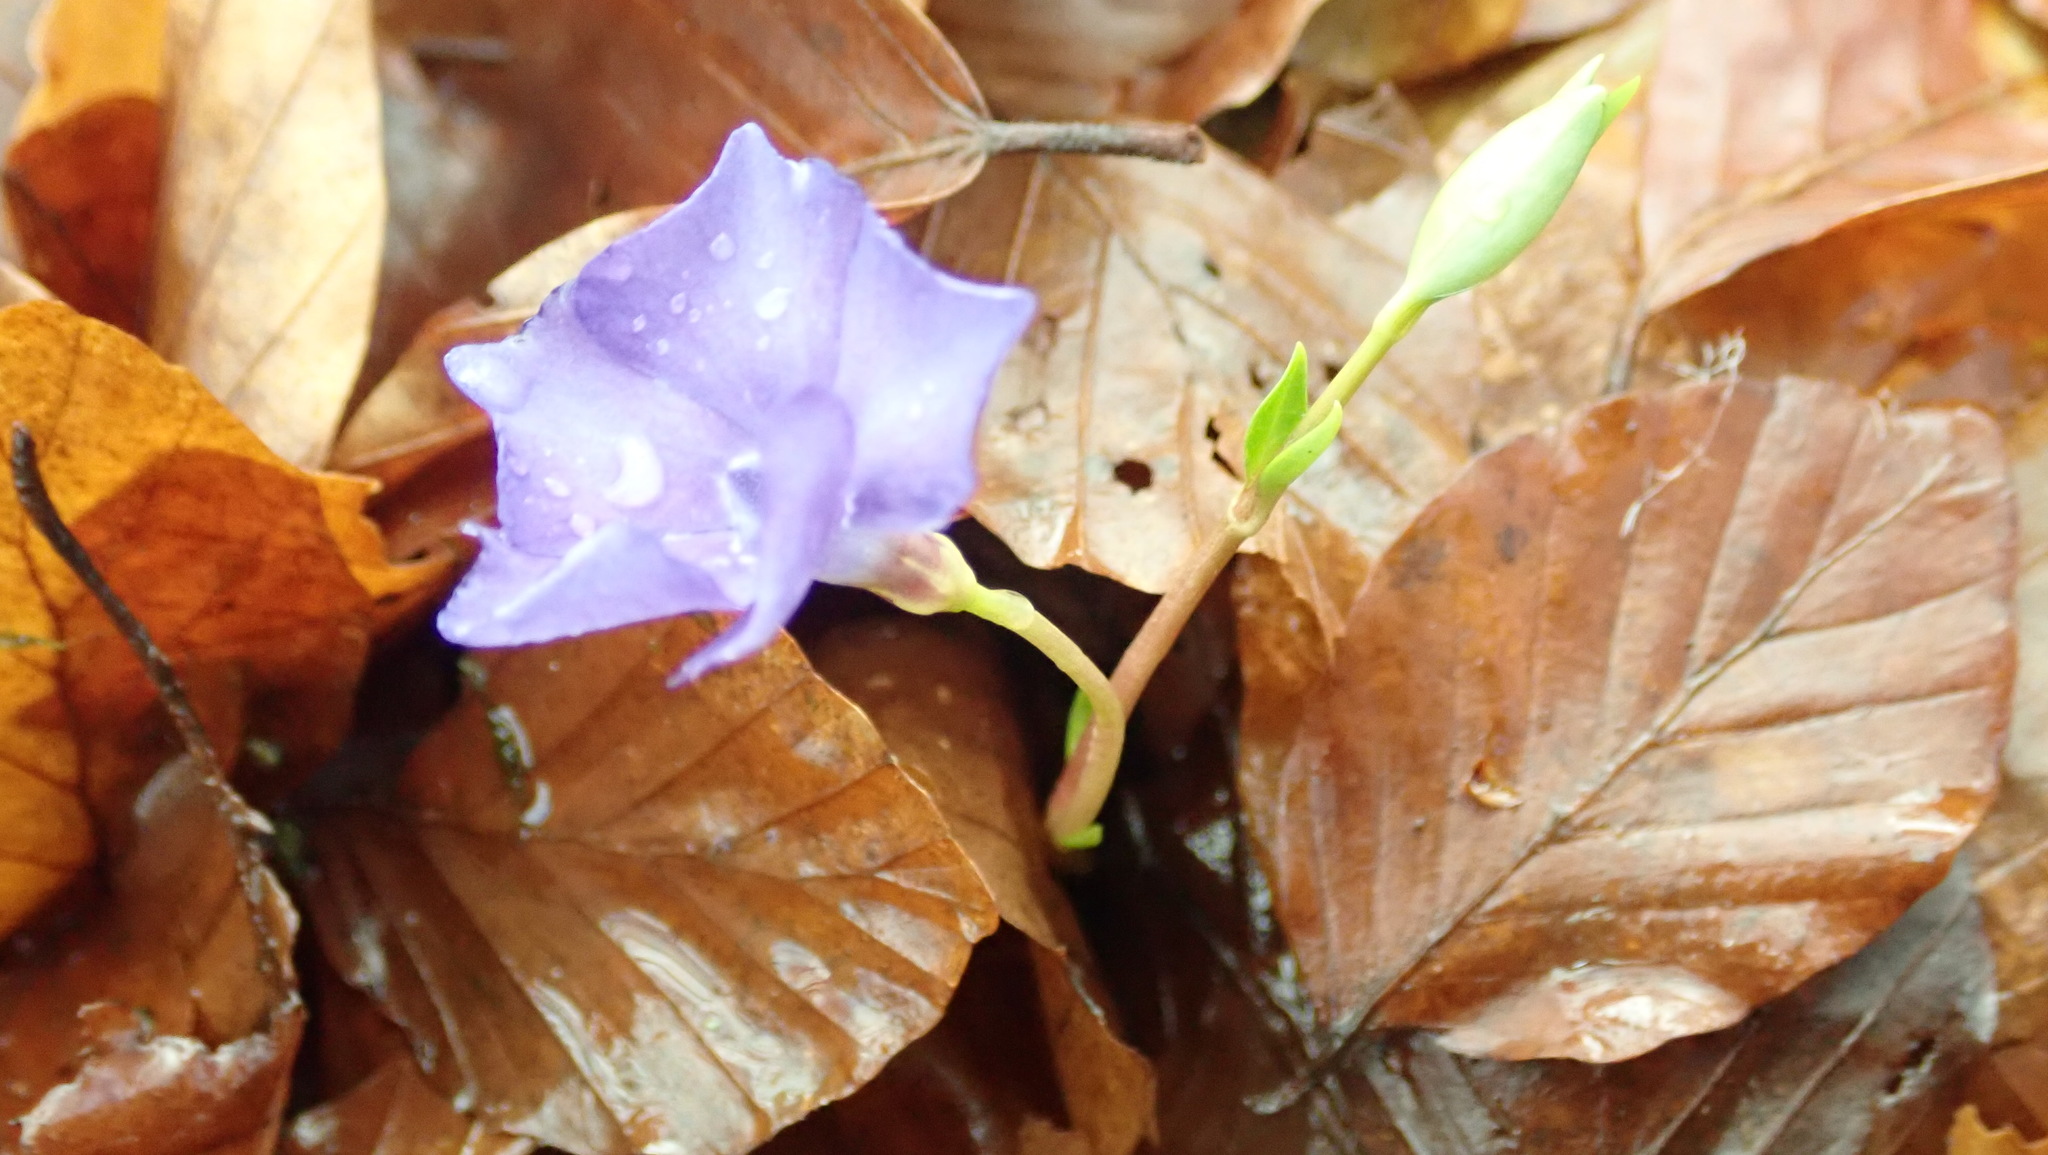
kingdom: Plantae
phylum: Tracheophyta
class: Magnoliopsida
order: Gentianales
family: Apocynaceae
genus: Vinca
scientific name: Vinca minor
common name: Lesser periwinkle
